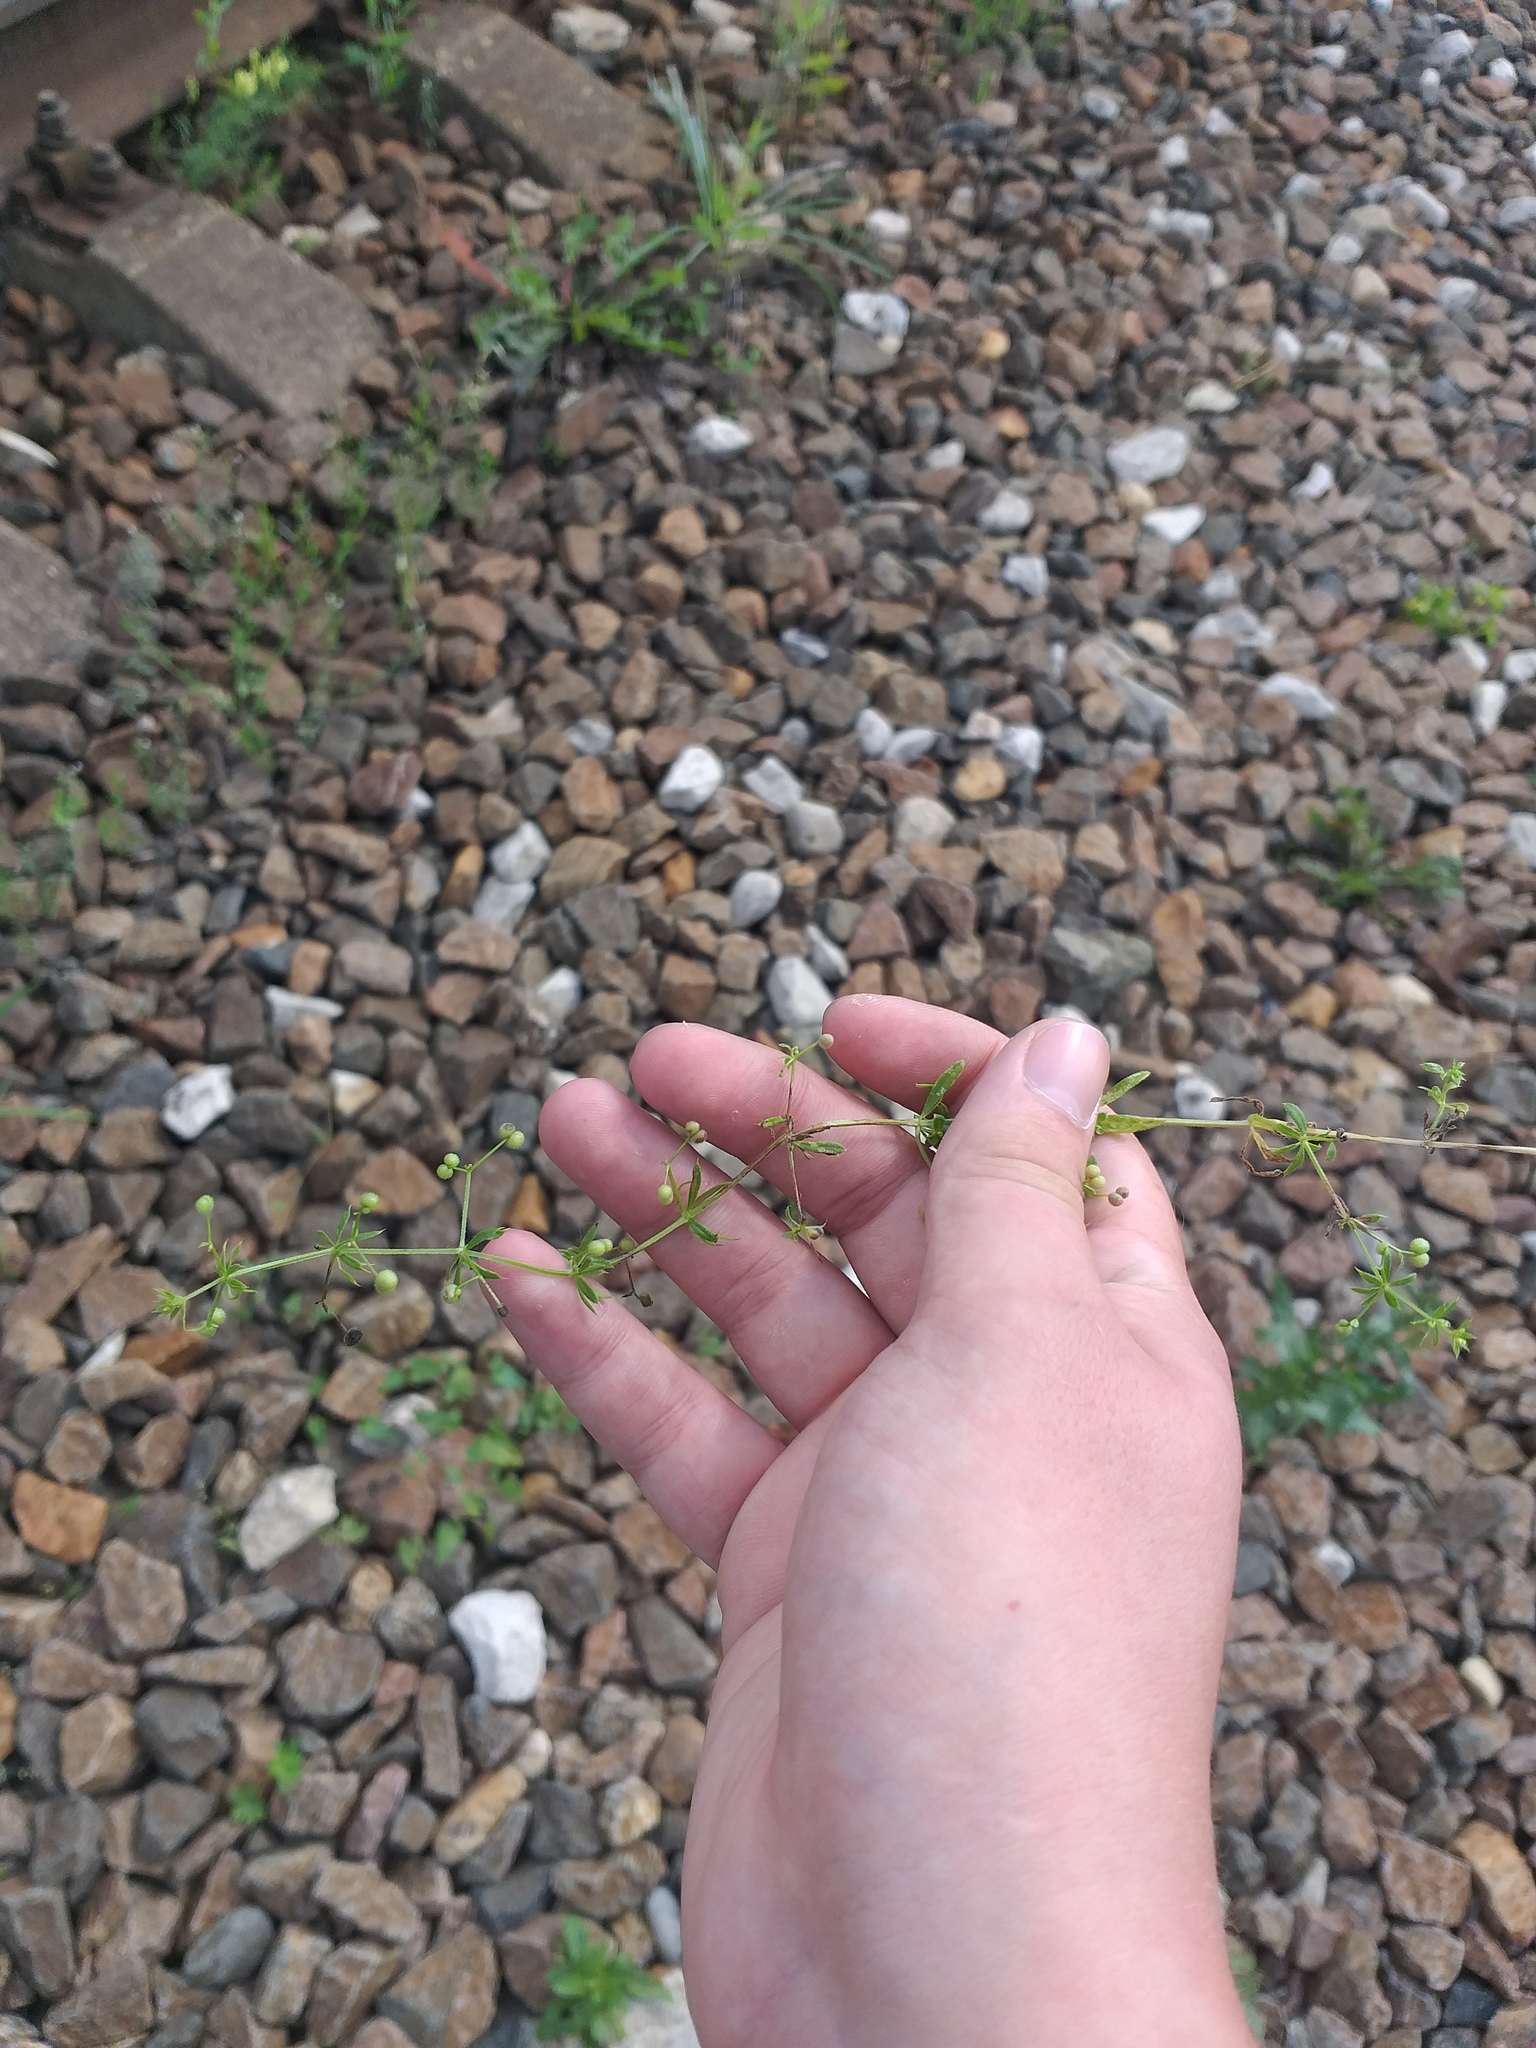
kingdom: Plantae
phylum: Tracheophyta
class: Magnoliopsida
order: Gentianales
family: Rubiaceae
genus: Galium
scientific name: Galium
